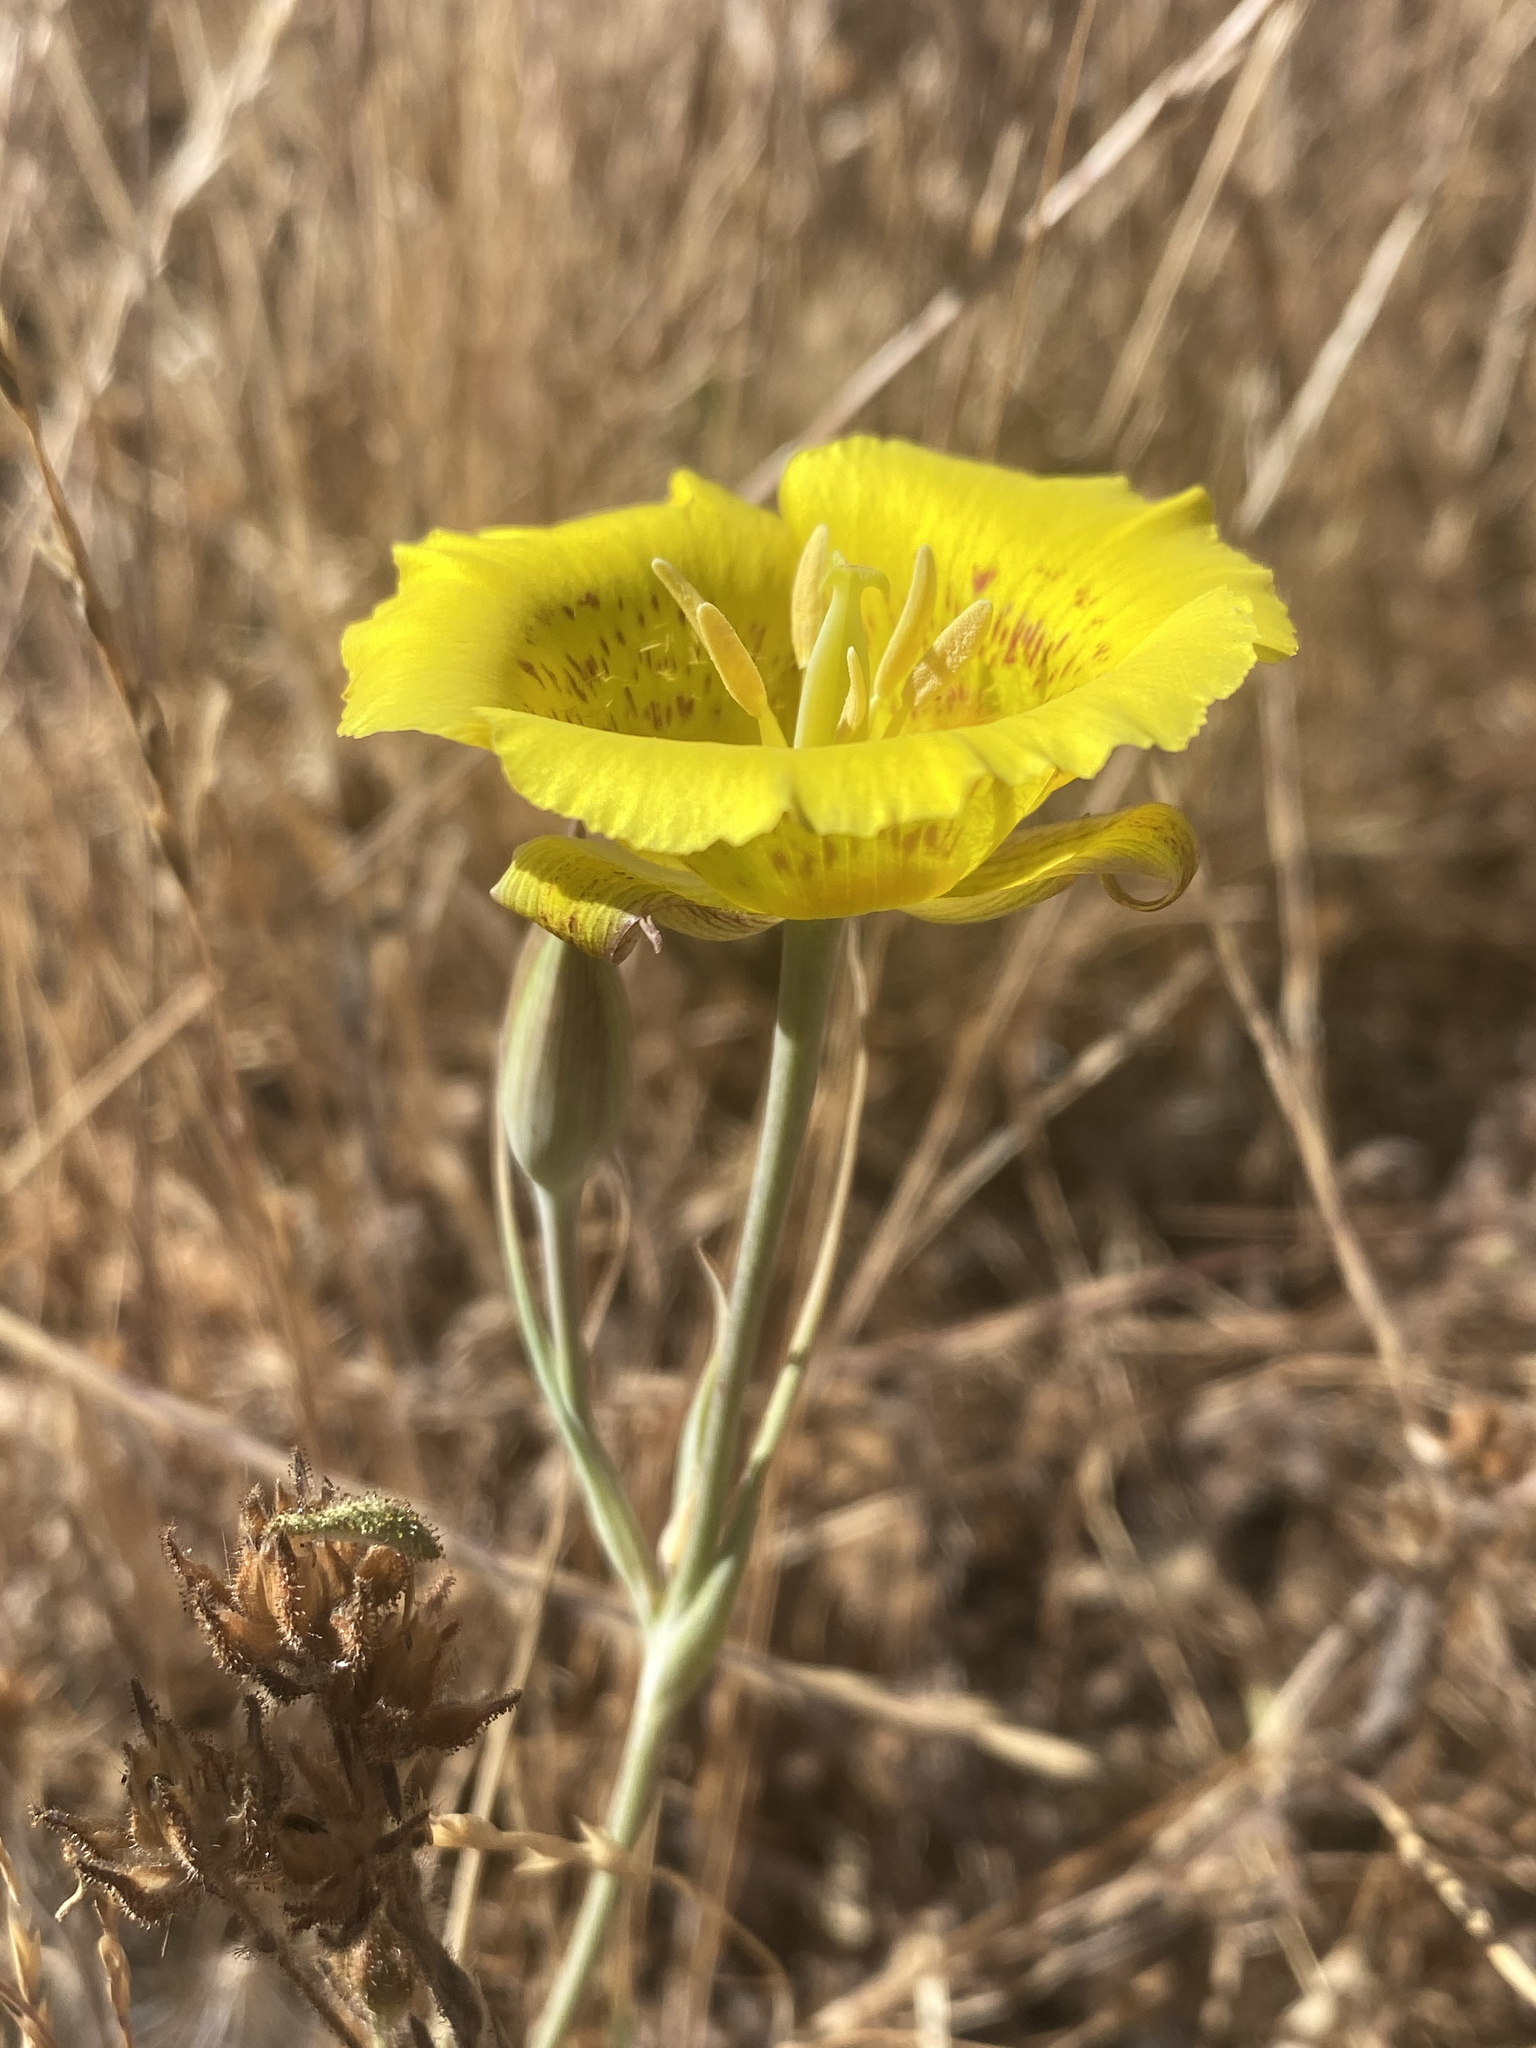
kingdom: Plantae
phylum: Tracheophyta
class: Liliopsida
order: Liliales
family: Liliaceae
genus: Calochortus
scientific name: Calochortus luteus
